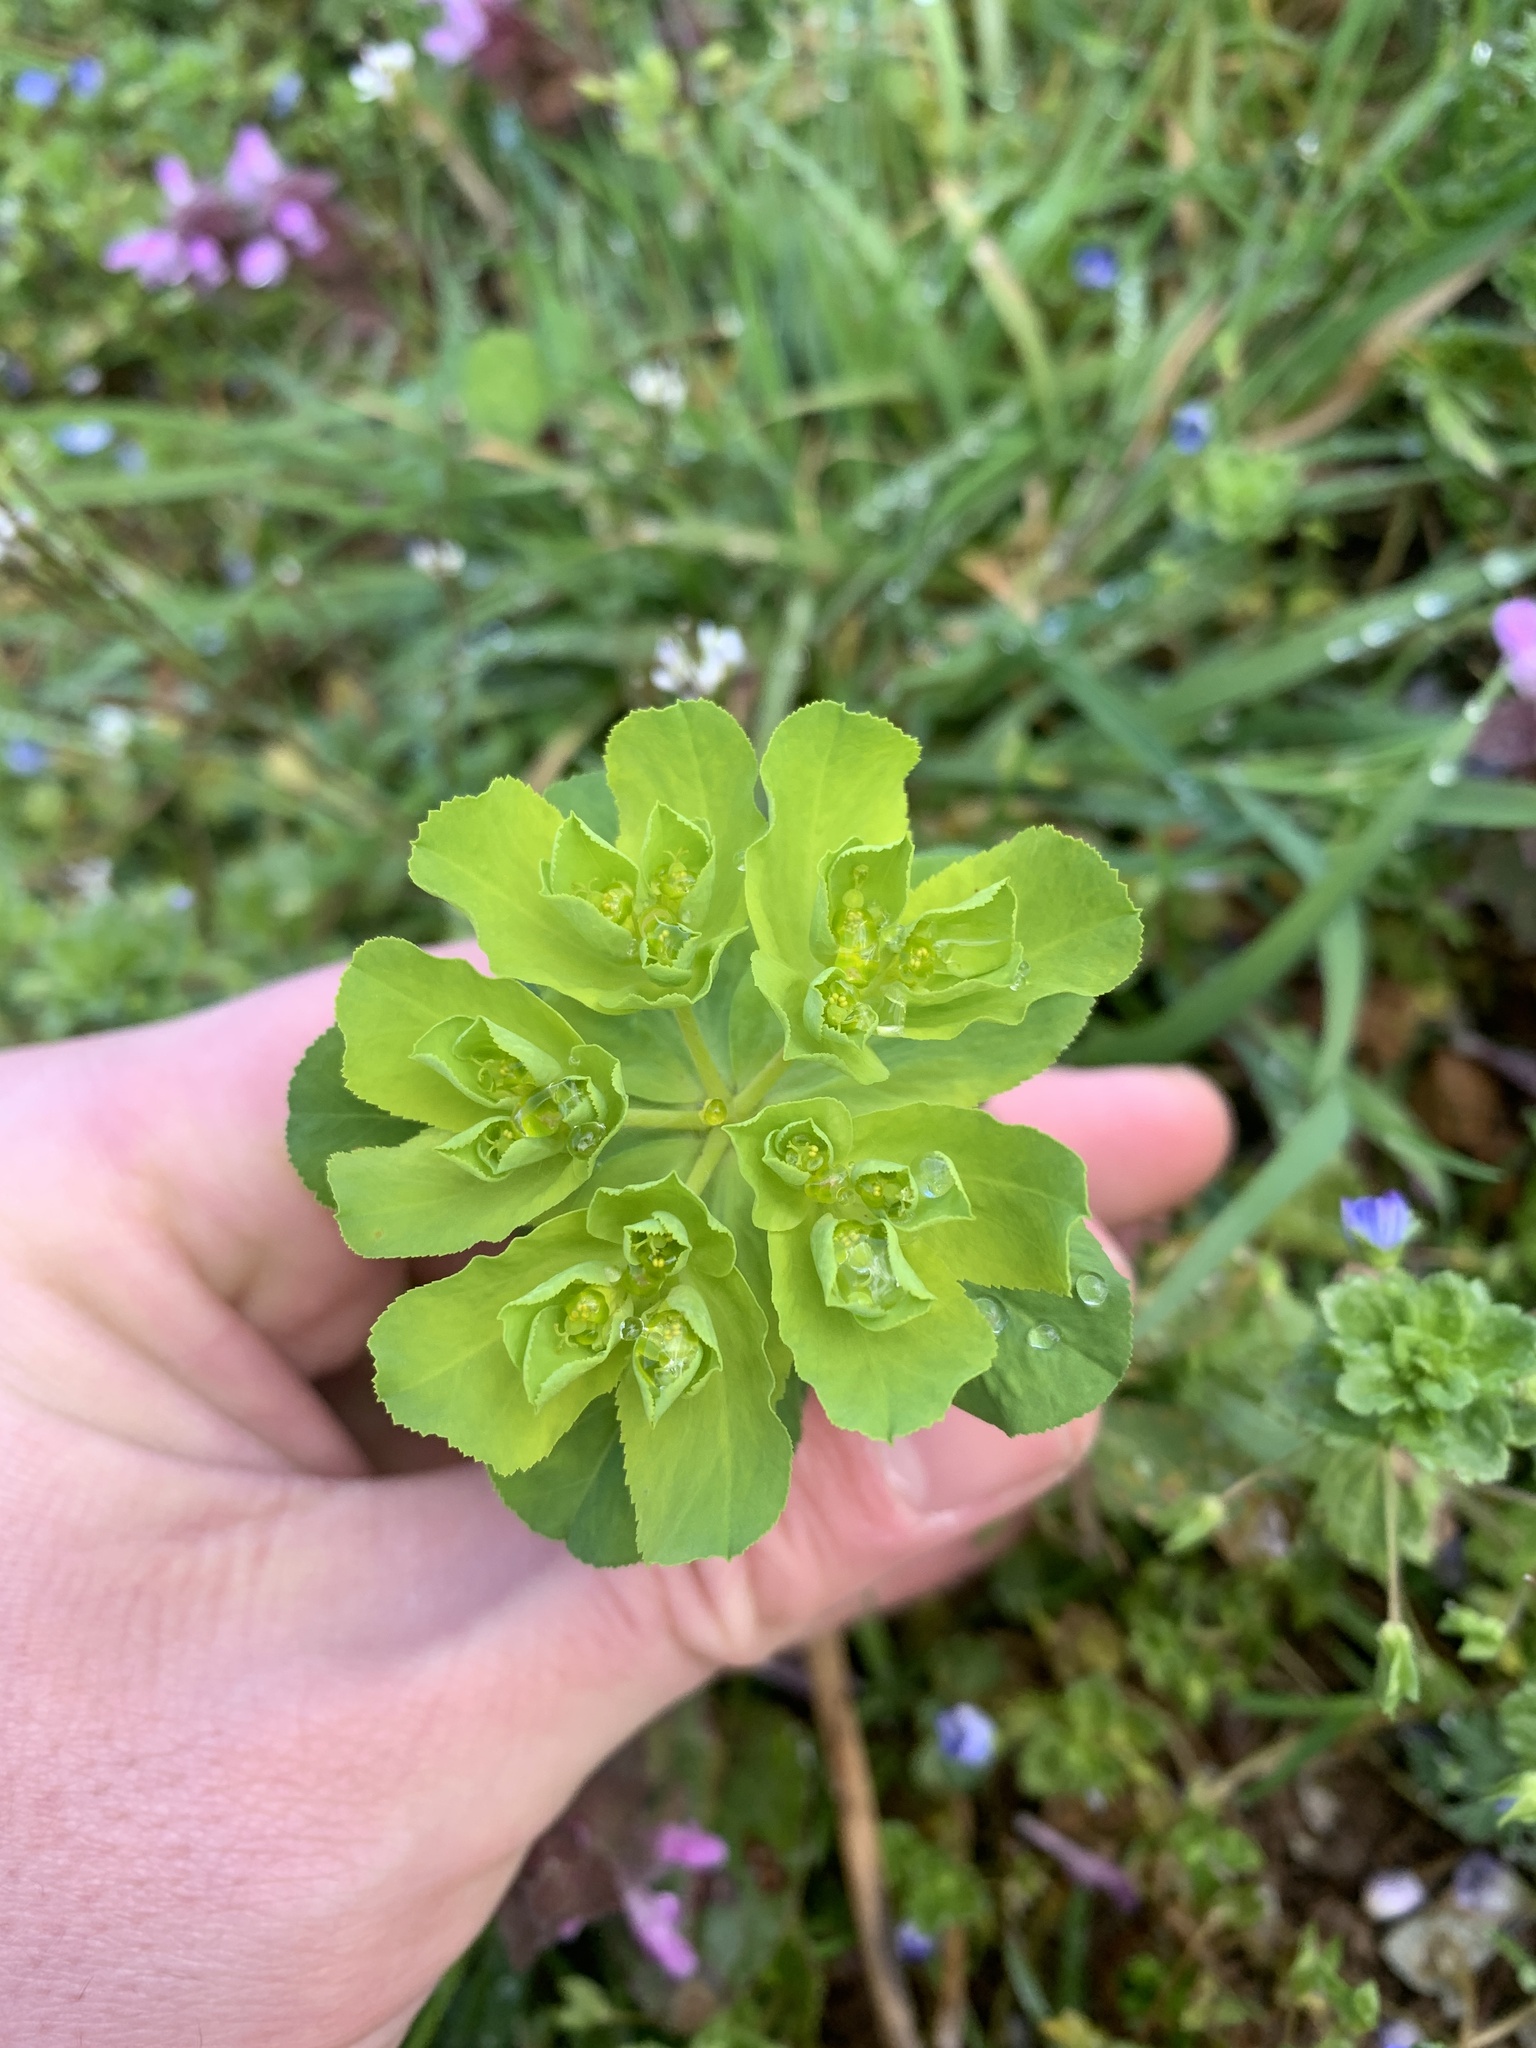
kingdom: Plantae
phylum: Tracheophyta
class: Magnoliopsida
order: Malpighiales
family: Euphorbiaceae
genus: Euphorbia
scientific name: Euphorbia helioscopia
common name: Sun spurge
